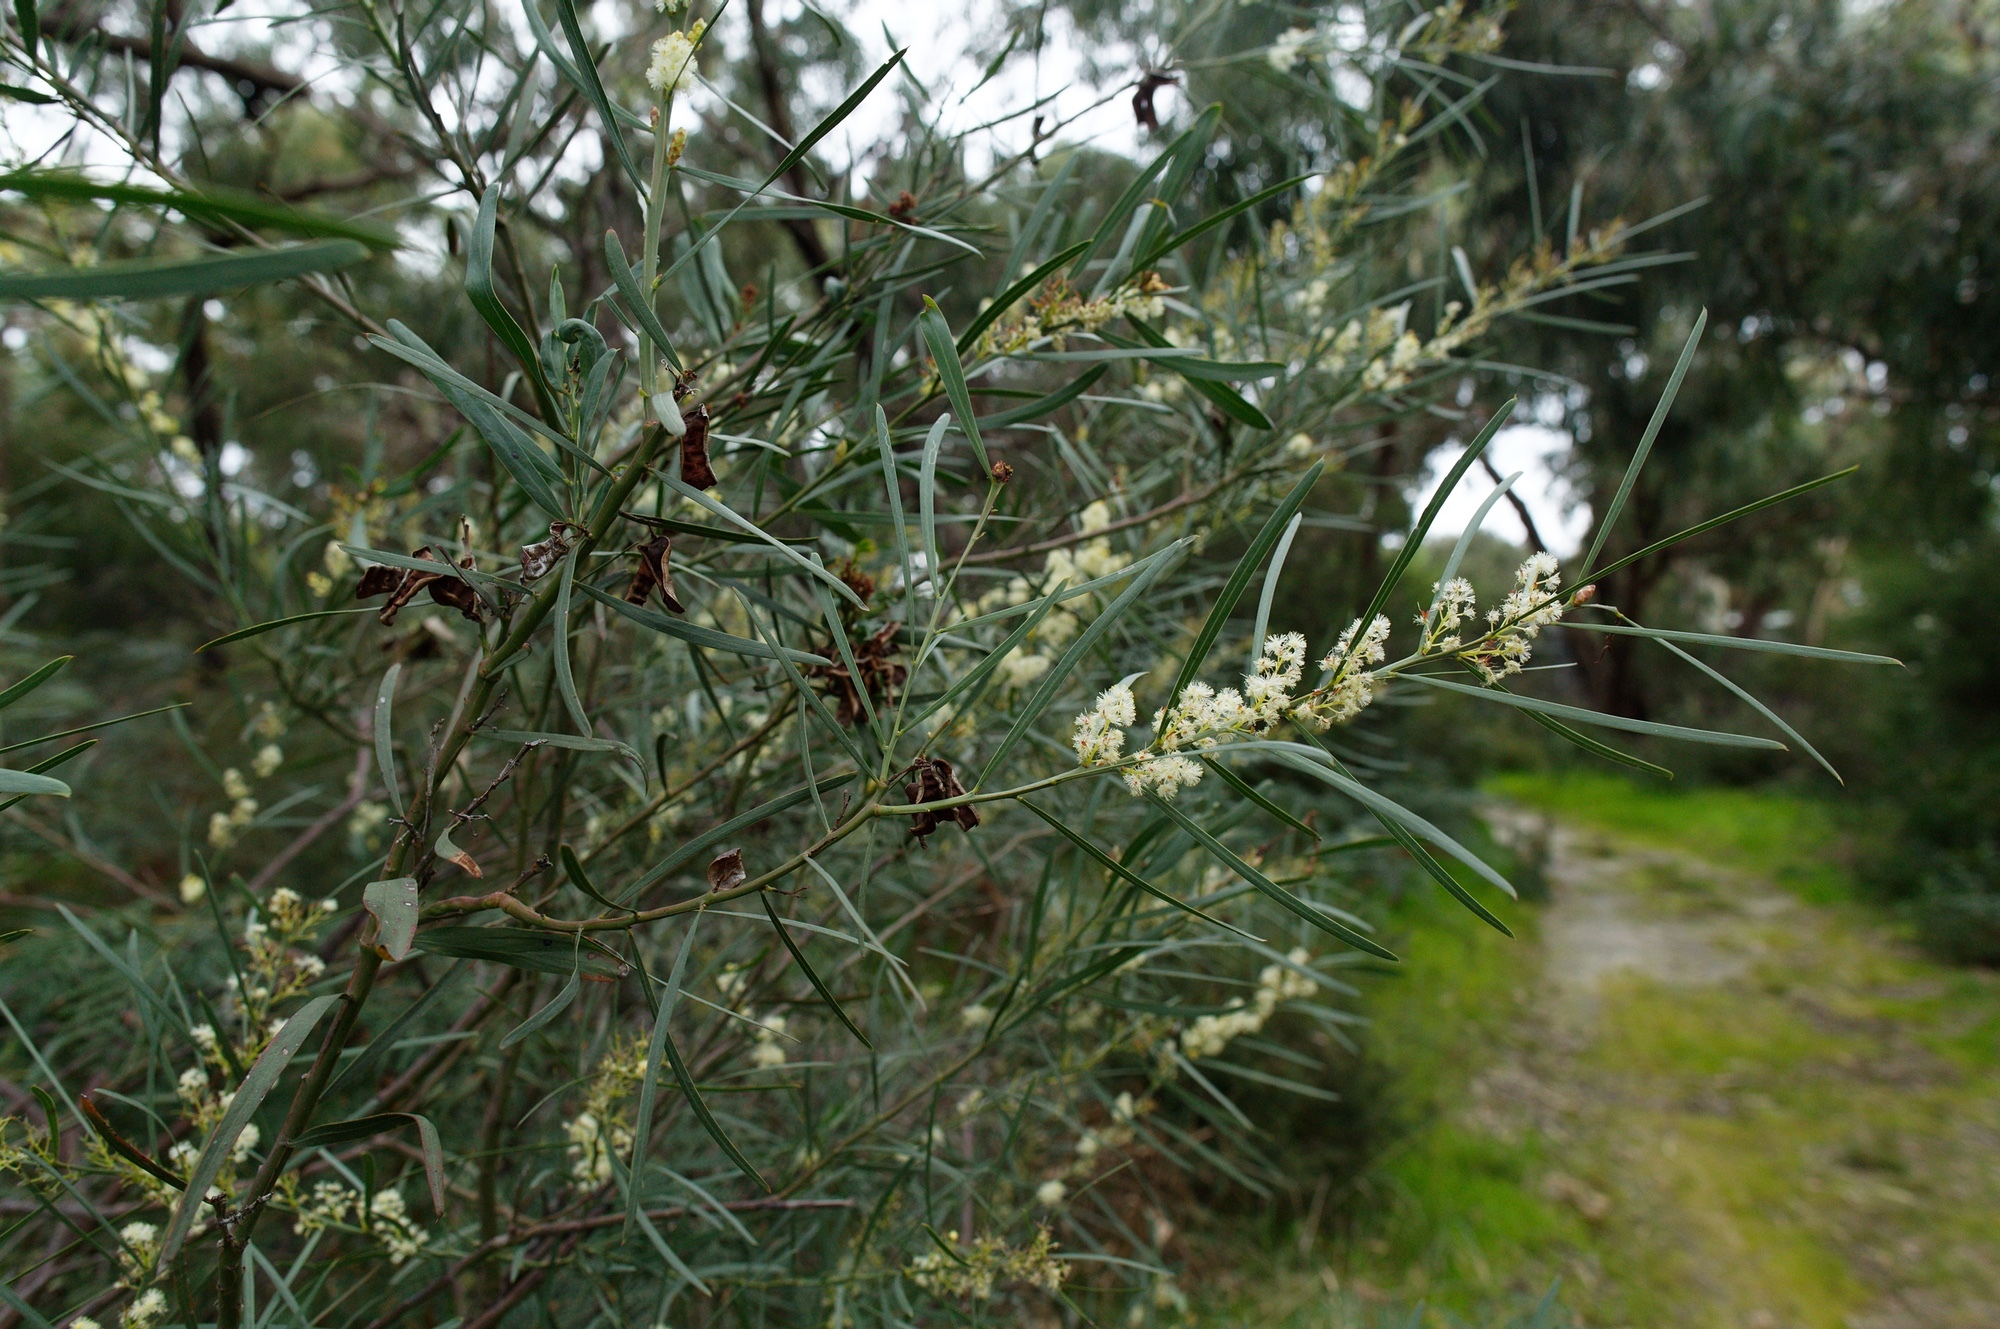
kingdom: Plantae
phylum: Tracheophyta
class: Magnoliopsida
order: Fabales
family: Fabaceae
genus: Acacia
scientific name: Acacia suaveolens
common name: Sweet acacia
